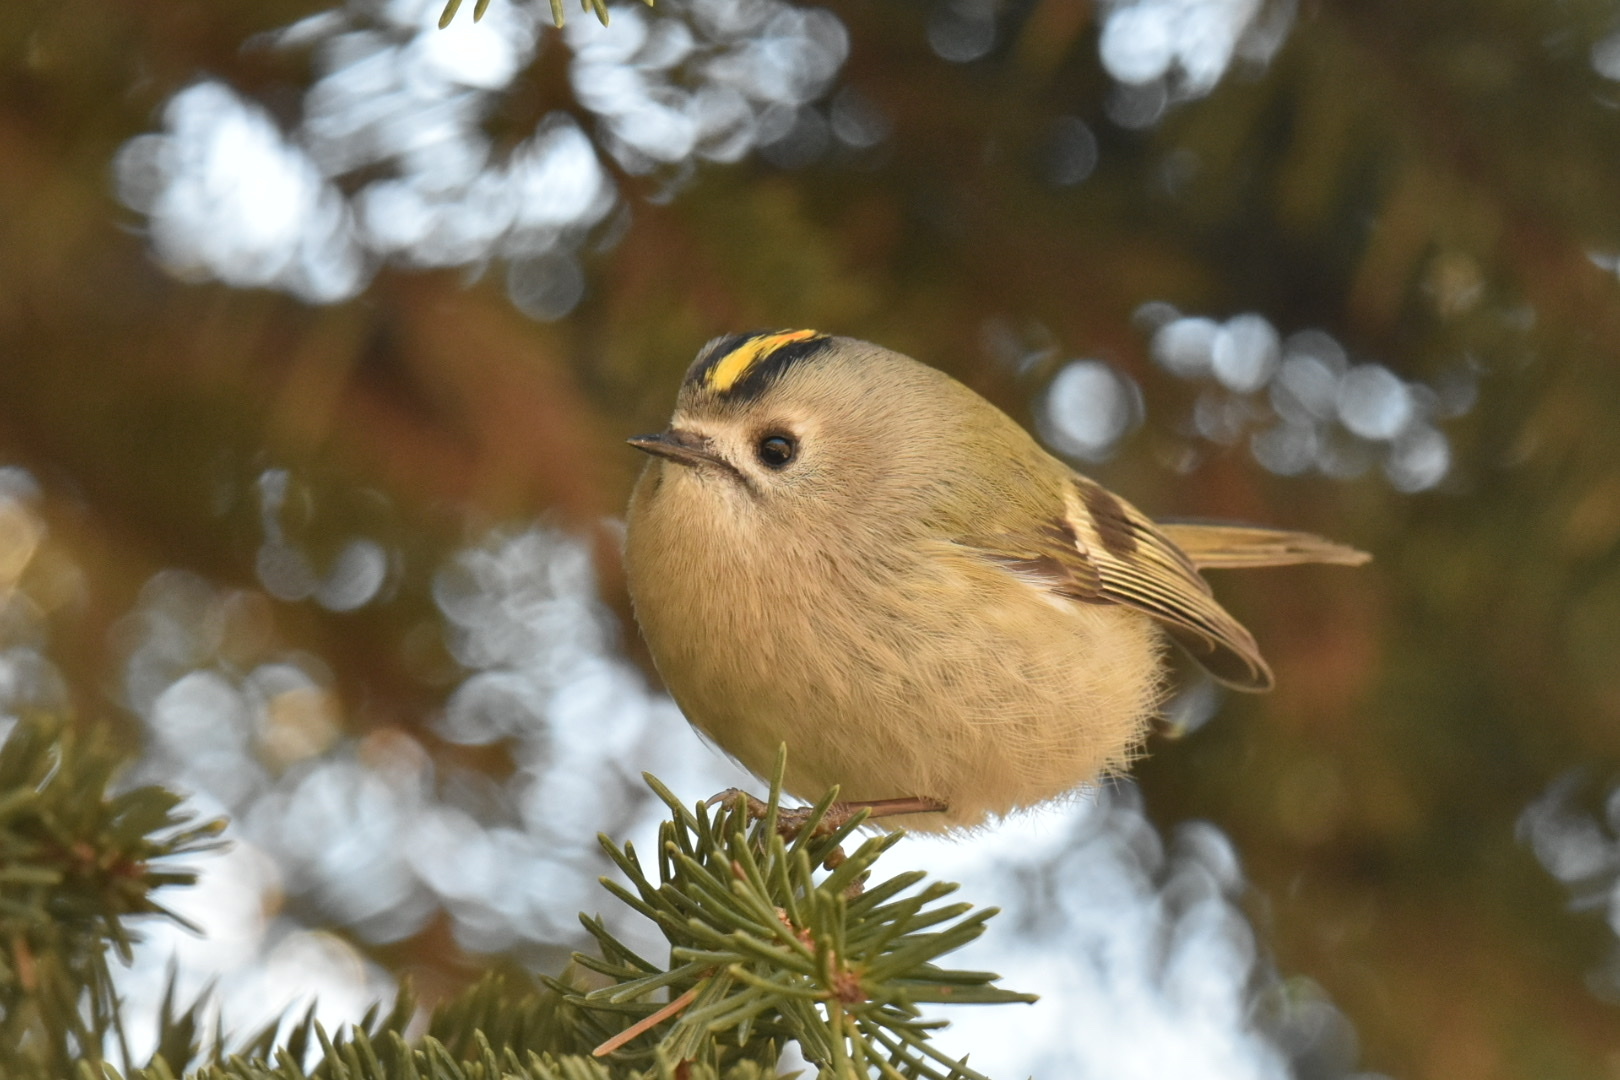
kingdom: Animalia
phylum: Chordata
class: Aves
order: Passeriformes
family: Regulidae
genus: Regulus
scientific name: Regulus regulus
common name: Goldcrest
